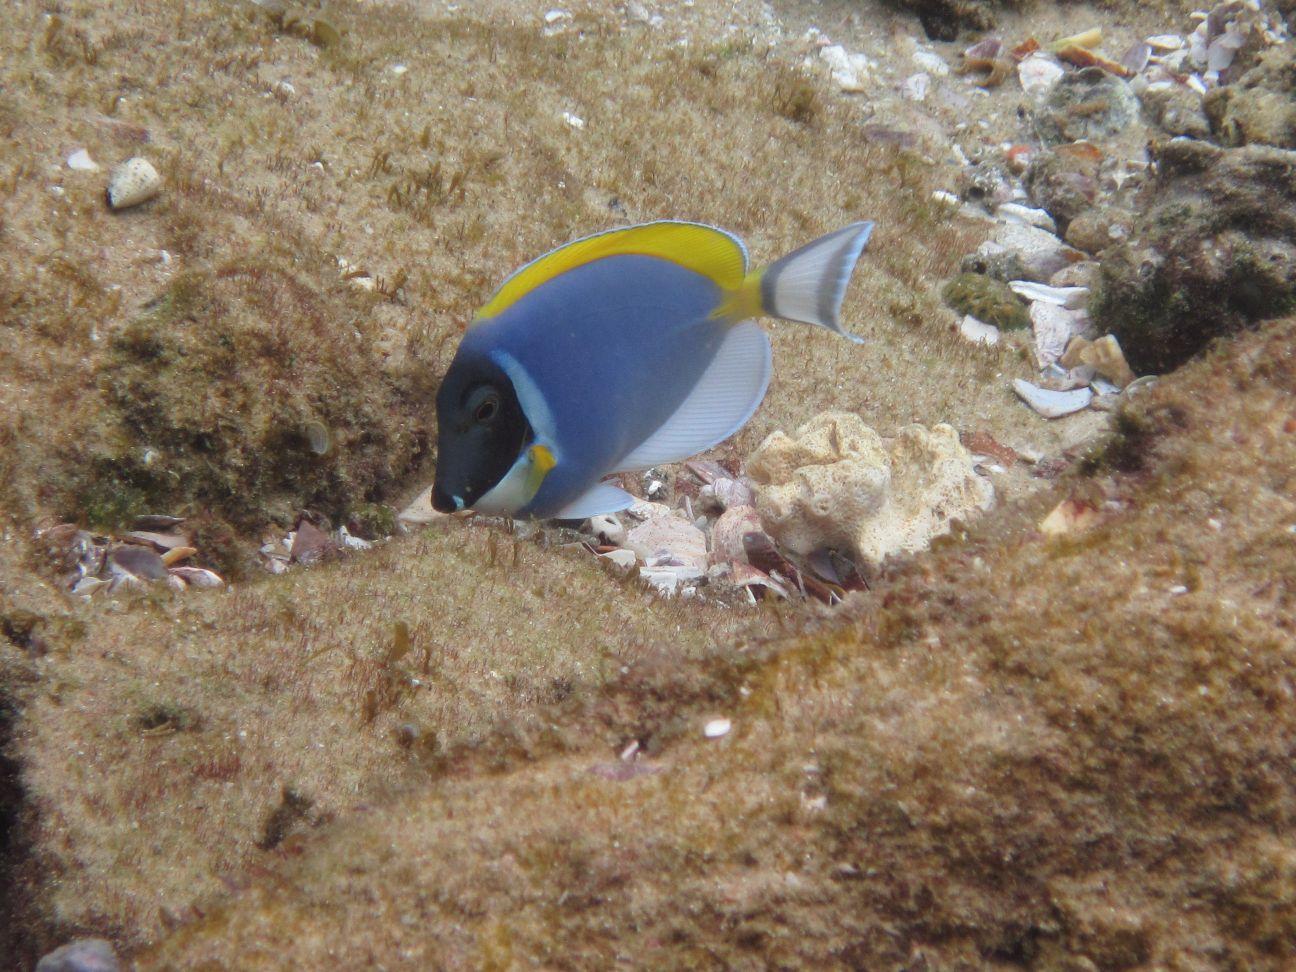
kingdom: Animalia
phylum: Chordata
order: Perciformes
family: Acanthuridae
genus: Acanthurus
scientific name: Acanthurus leucosternon
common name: Blue surgeonfish
